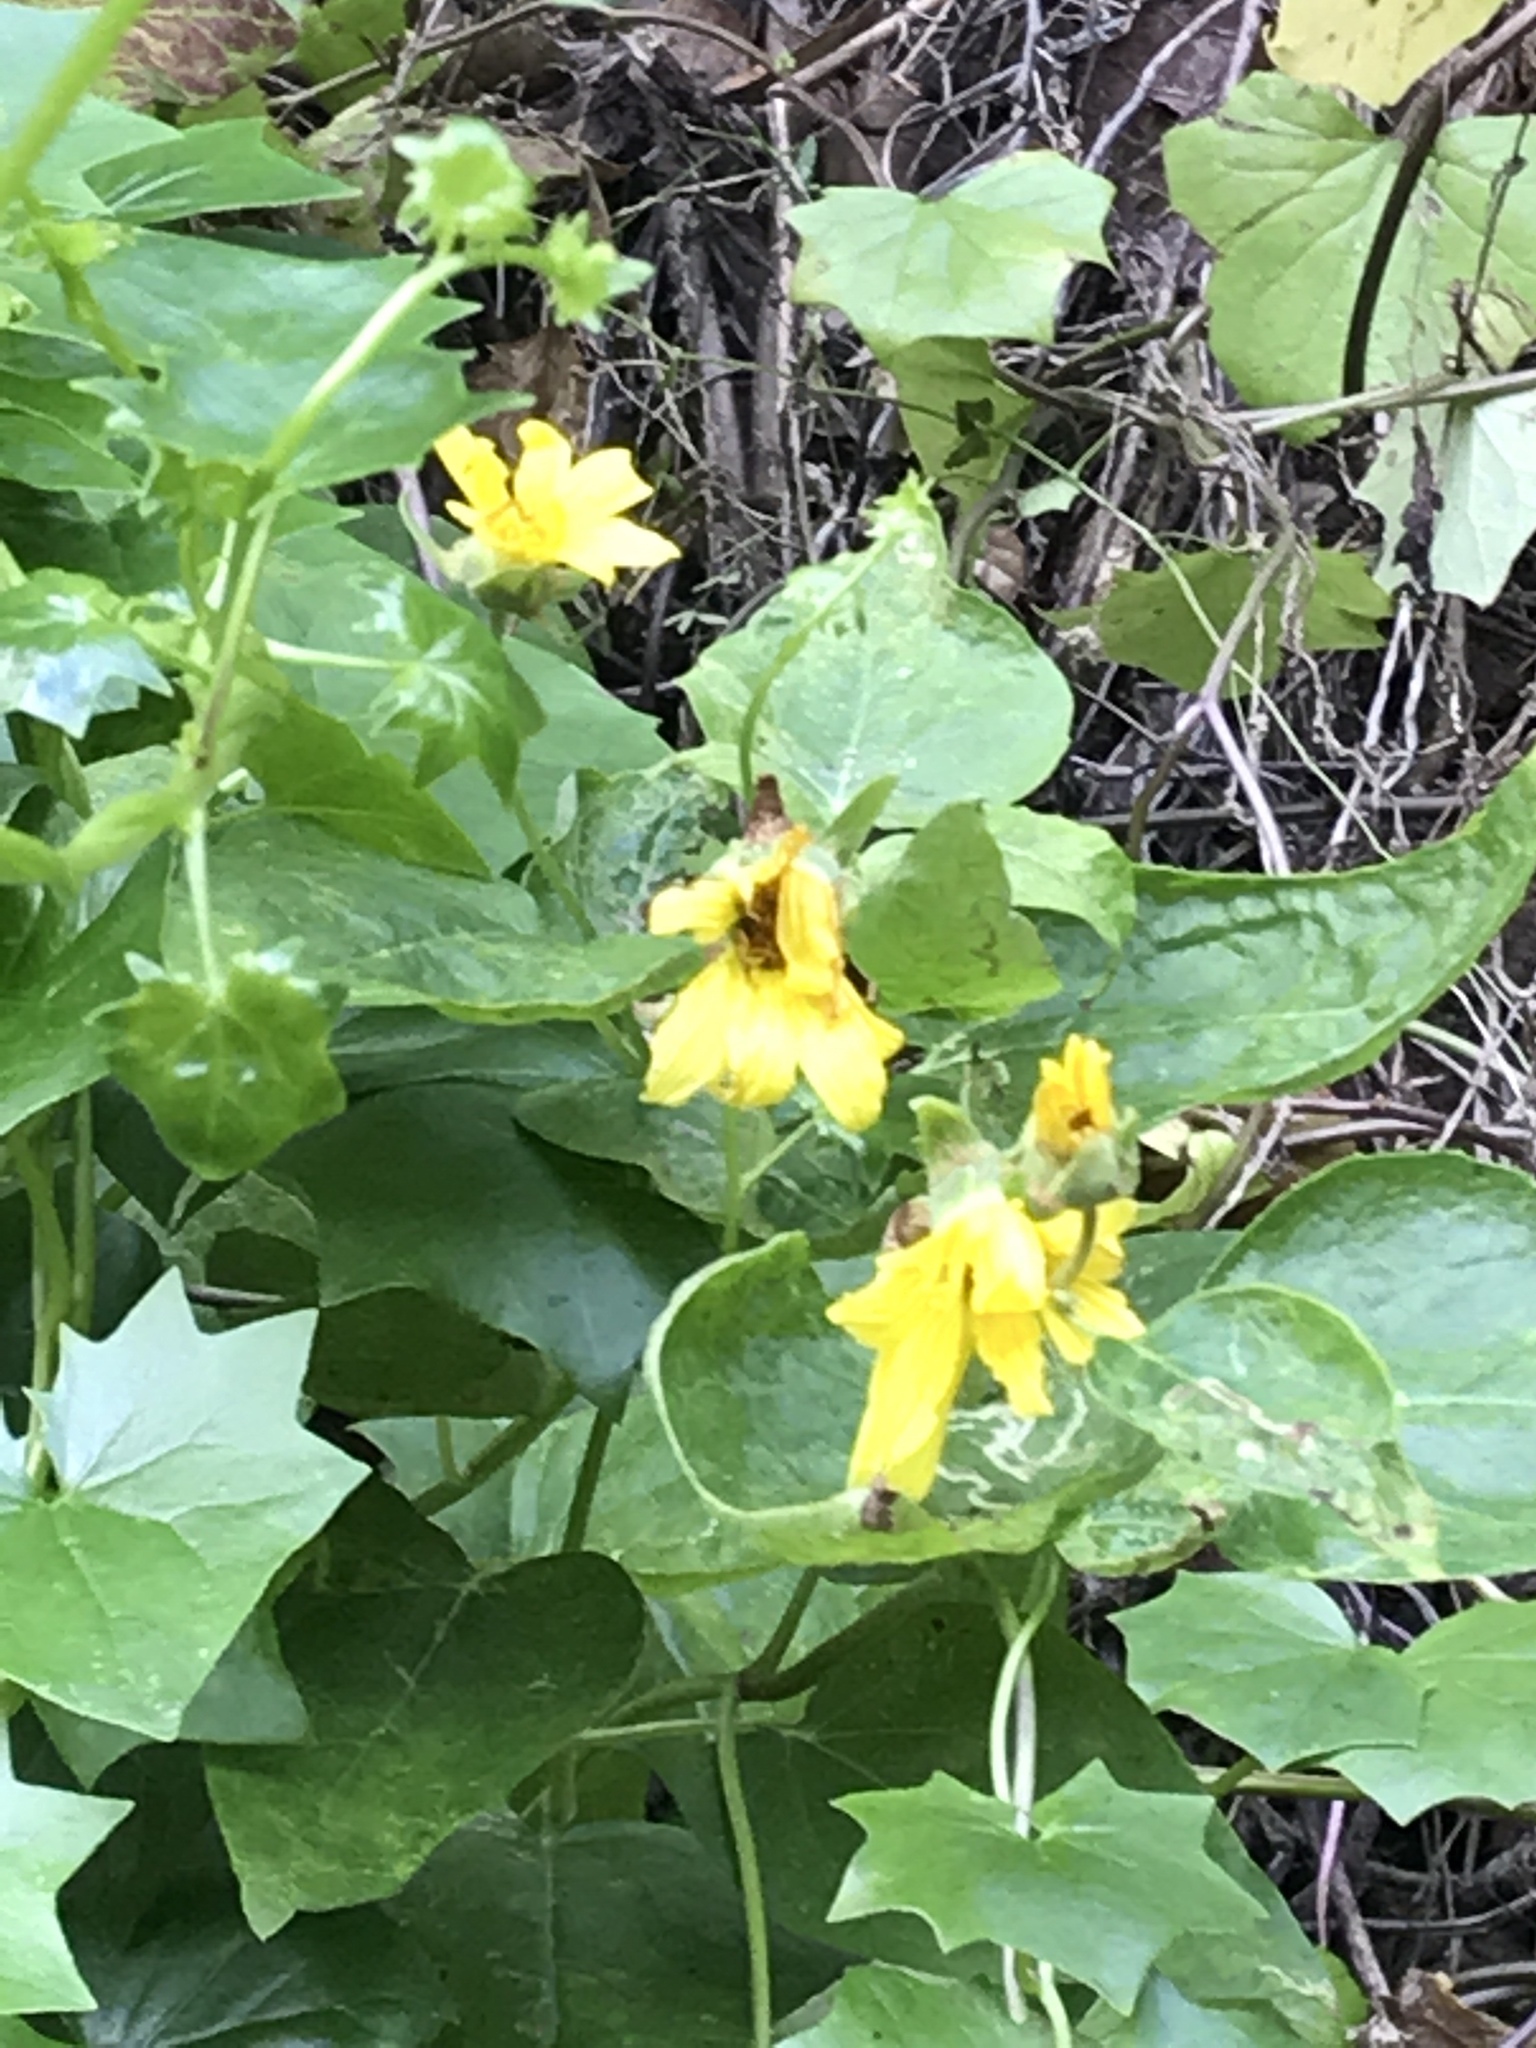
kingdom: Plantae
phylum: Tracheophyta
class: Magnoliopsida
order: Asterales
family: Asteraceae
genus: Venegasia
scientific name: Venegasia carpesioides
